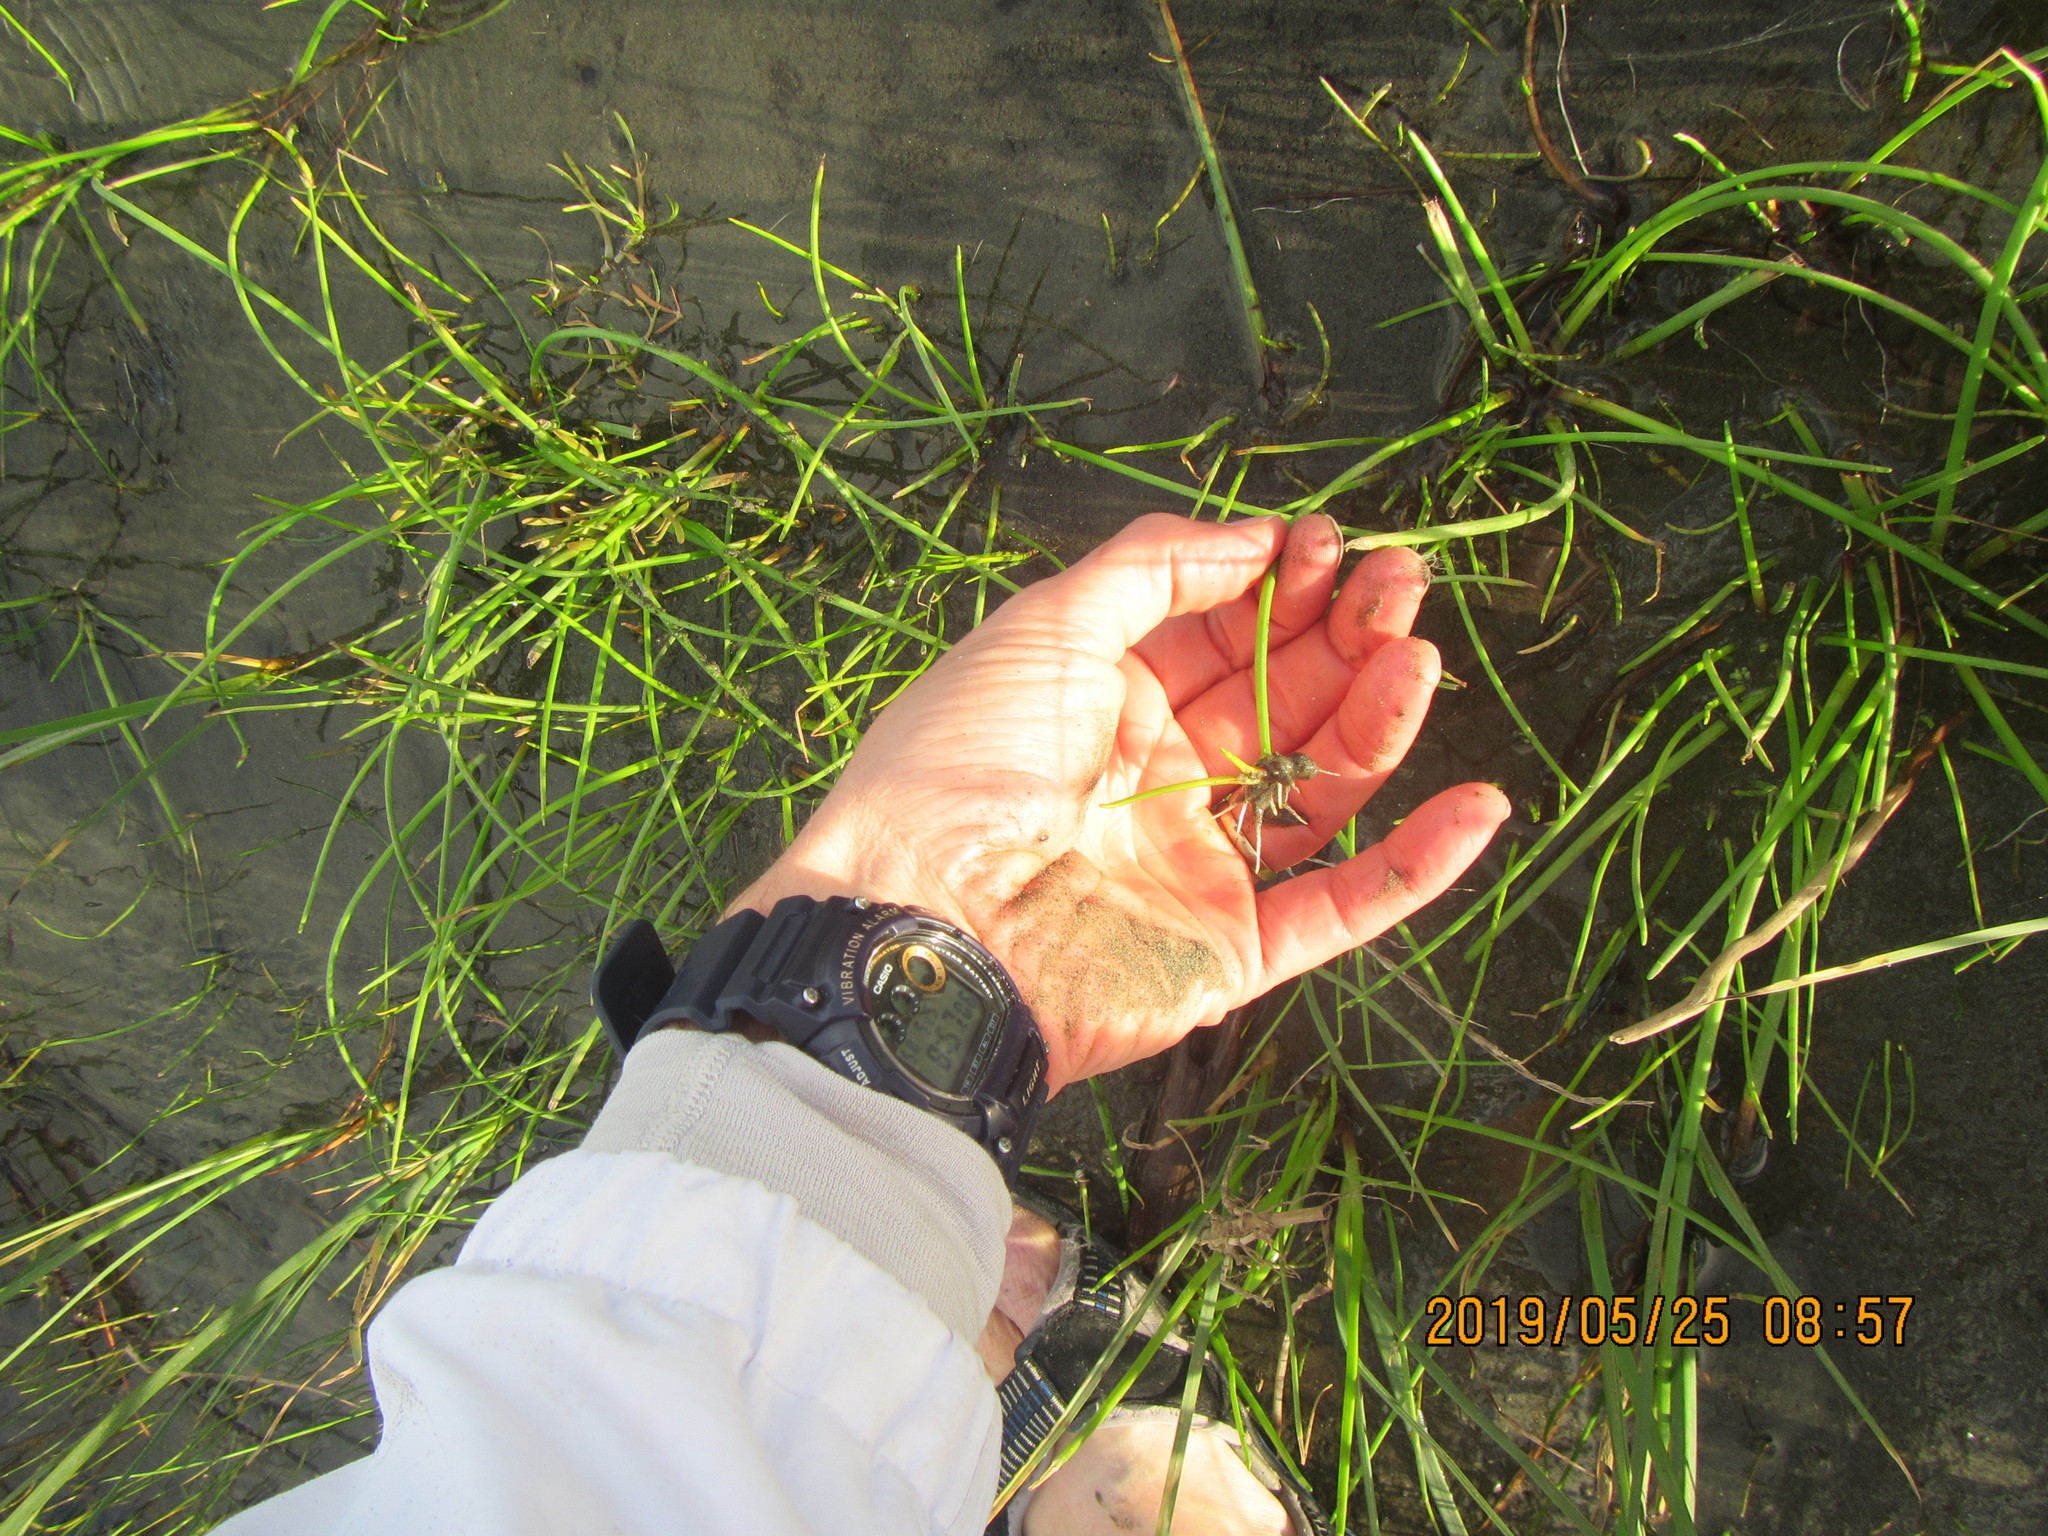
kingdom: Plantae
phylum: Tracheophyta
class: Liliopsida
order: Poales
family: Cyperaceae
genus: Isolepis
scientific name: Isolepis prolifera
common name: Proliferating bulrush
